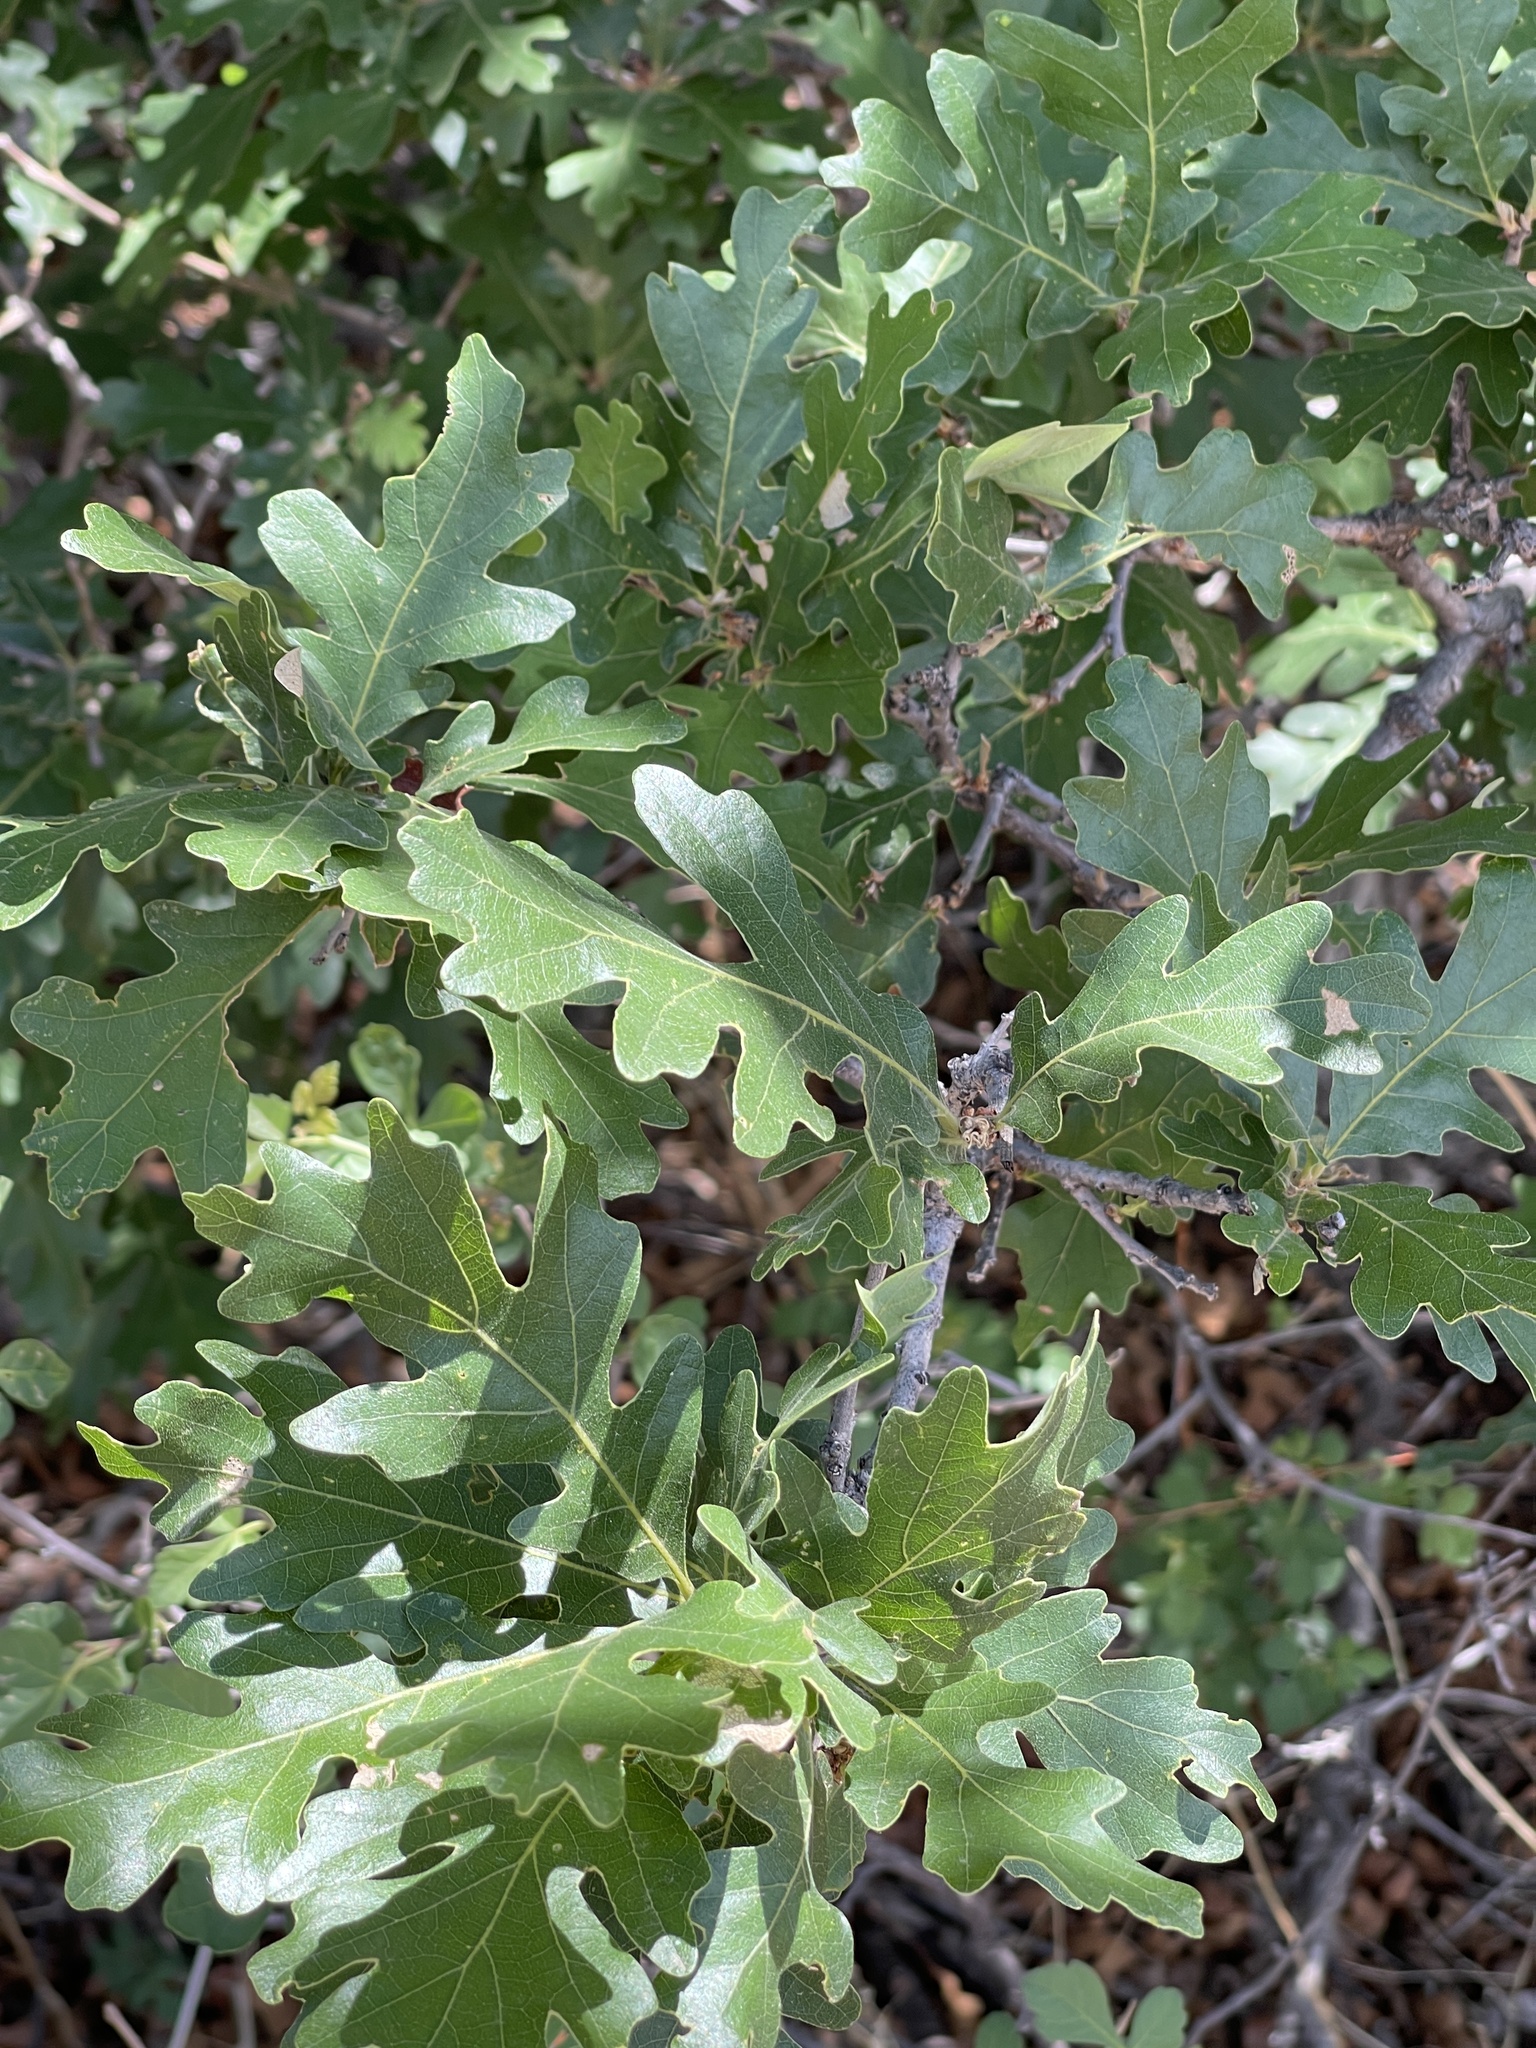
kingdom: Plantae
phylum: Tracheophyta
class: Magnoliopsida
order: Fagales
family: Fagaceae
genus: Quercus
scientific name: Quercus gambelii
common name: Gambel oak
